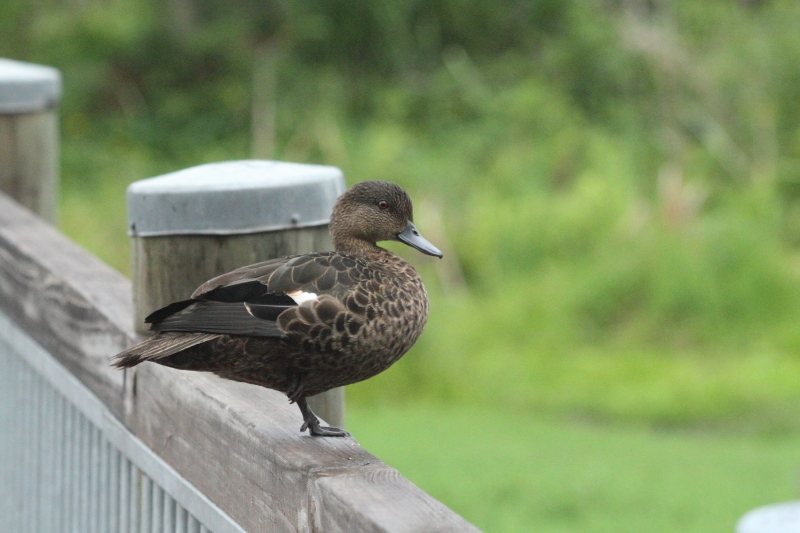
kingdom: Animalia
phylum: Chordata
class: Aves
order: Anseriformes
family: Anatidae
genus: Anas
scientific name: Anas castanea
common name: Chestnut teal
